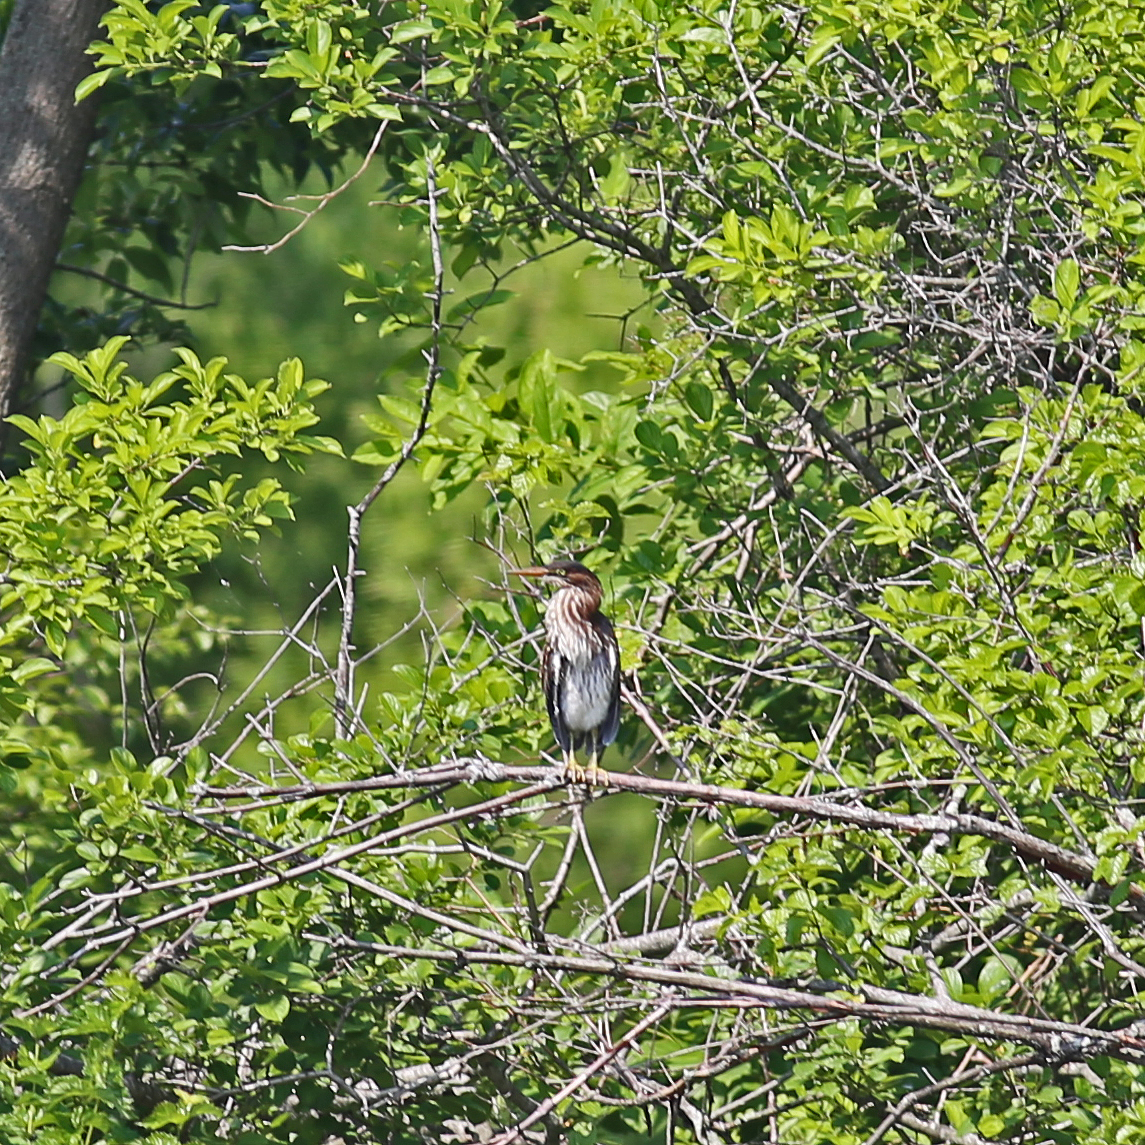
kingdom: Animalia
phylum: Chordata
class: Aves
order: Pelecaniformes
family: Ardeidae
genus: Butorides
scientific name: Butorides virescens
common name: Green heron
